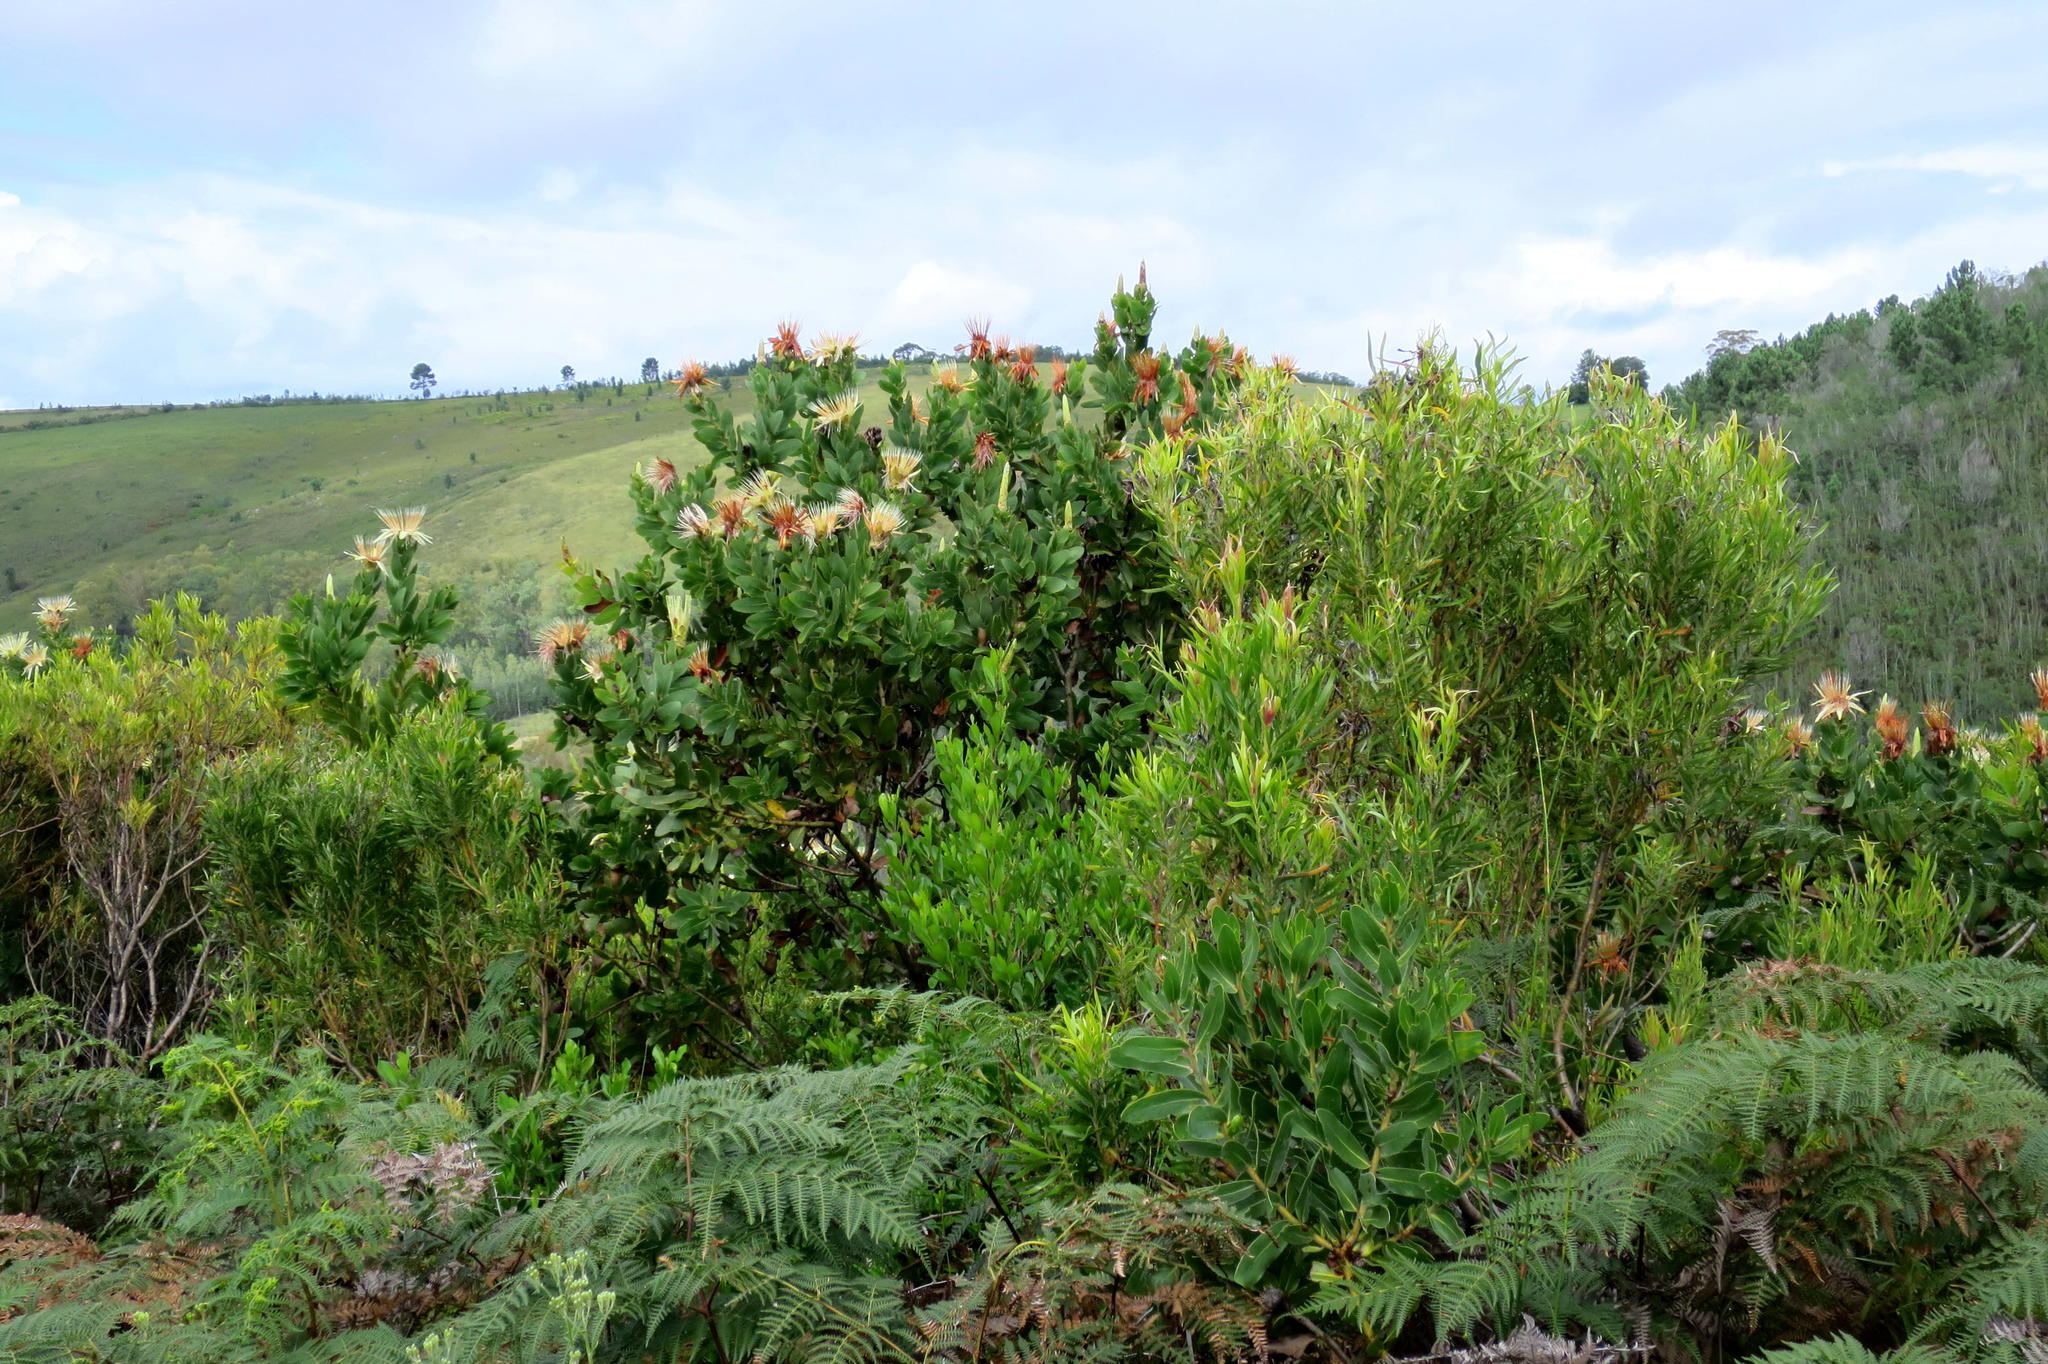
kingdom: Plantae
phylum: Tracheophyta
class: Magnoliopsida
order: Proteales
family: Proteaceae
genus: Protea
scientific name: Protea aurea
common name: Shuttlecock sugarbush
